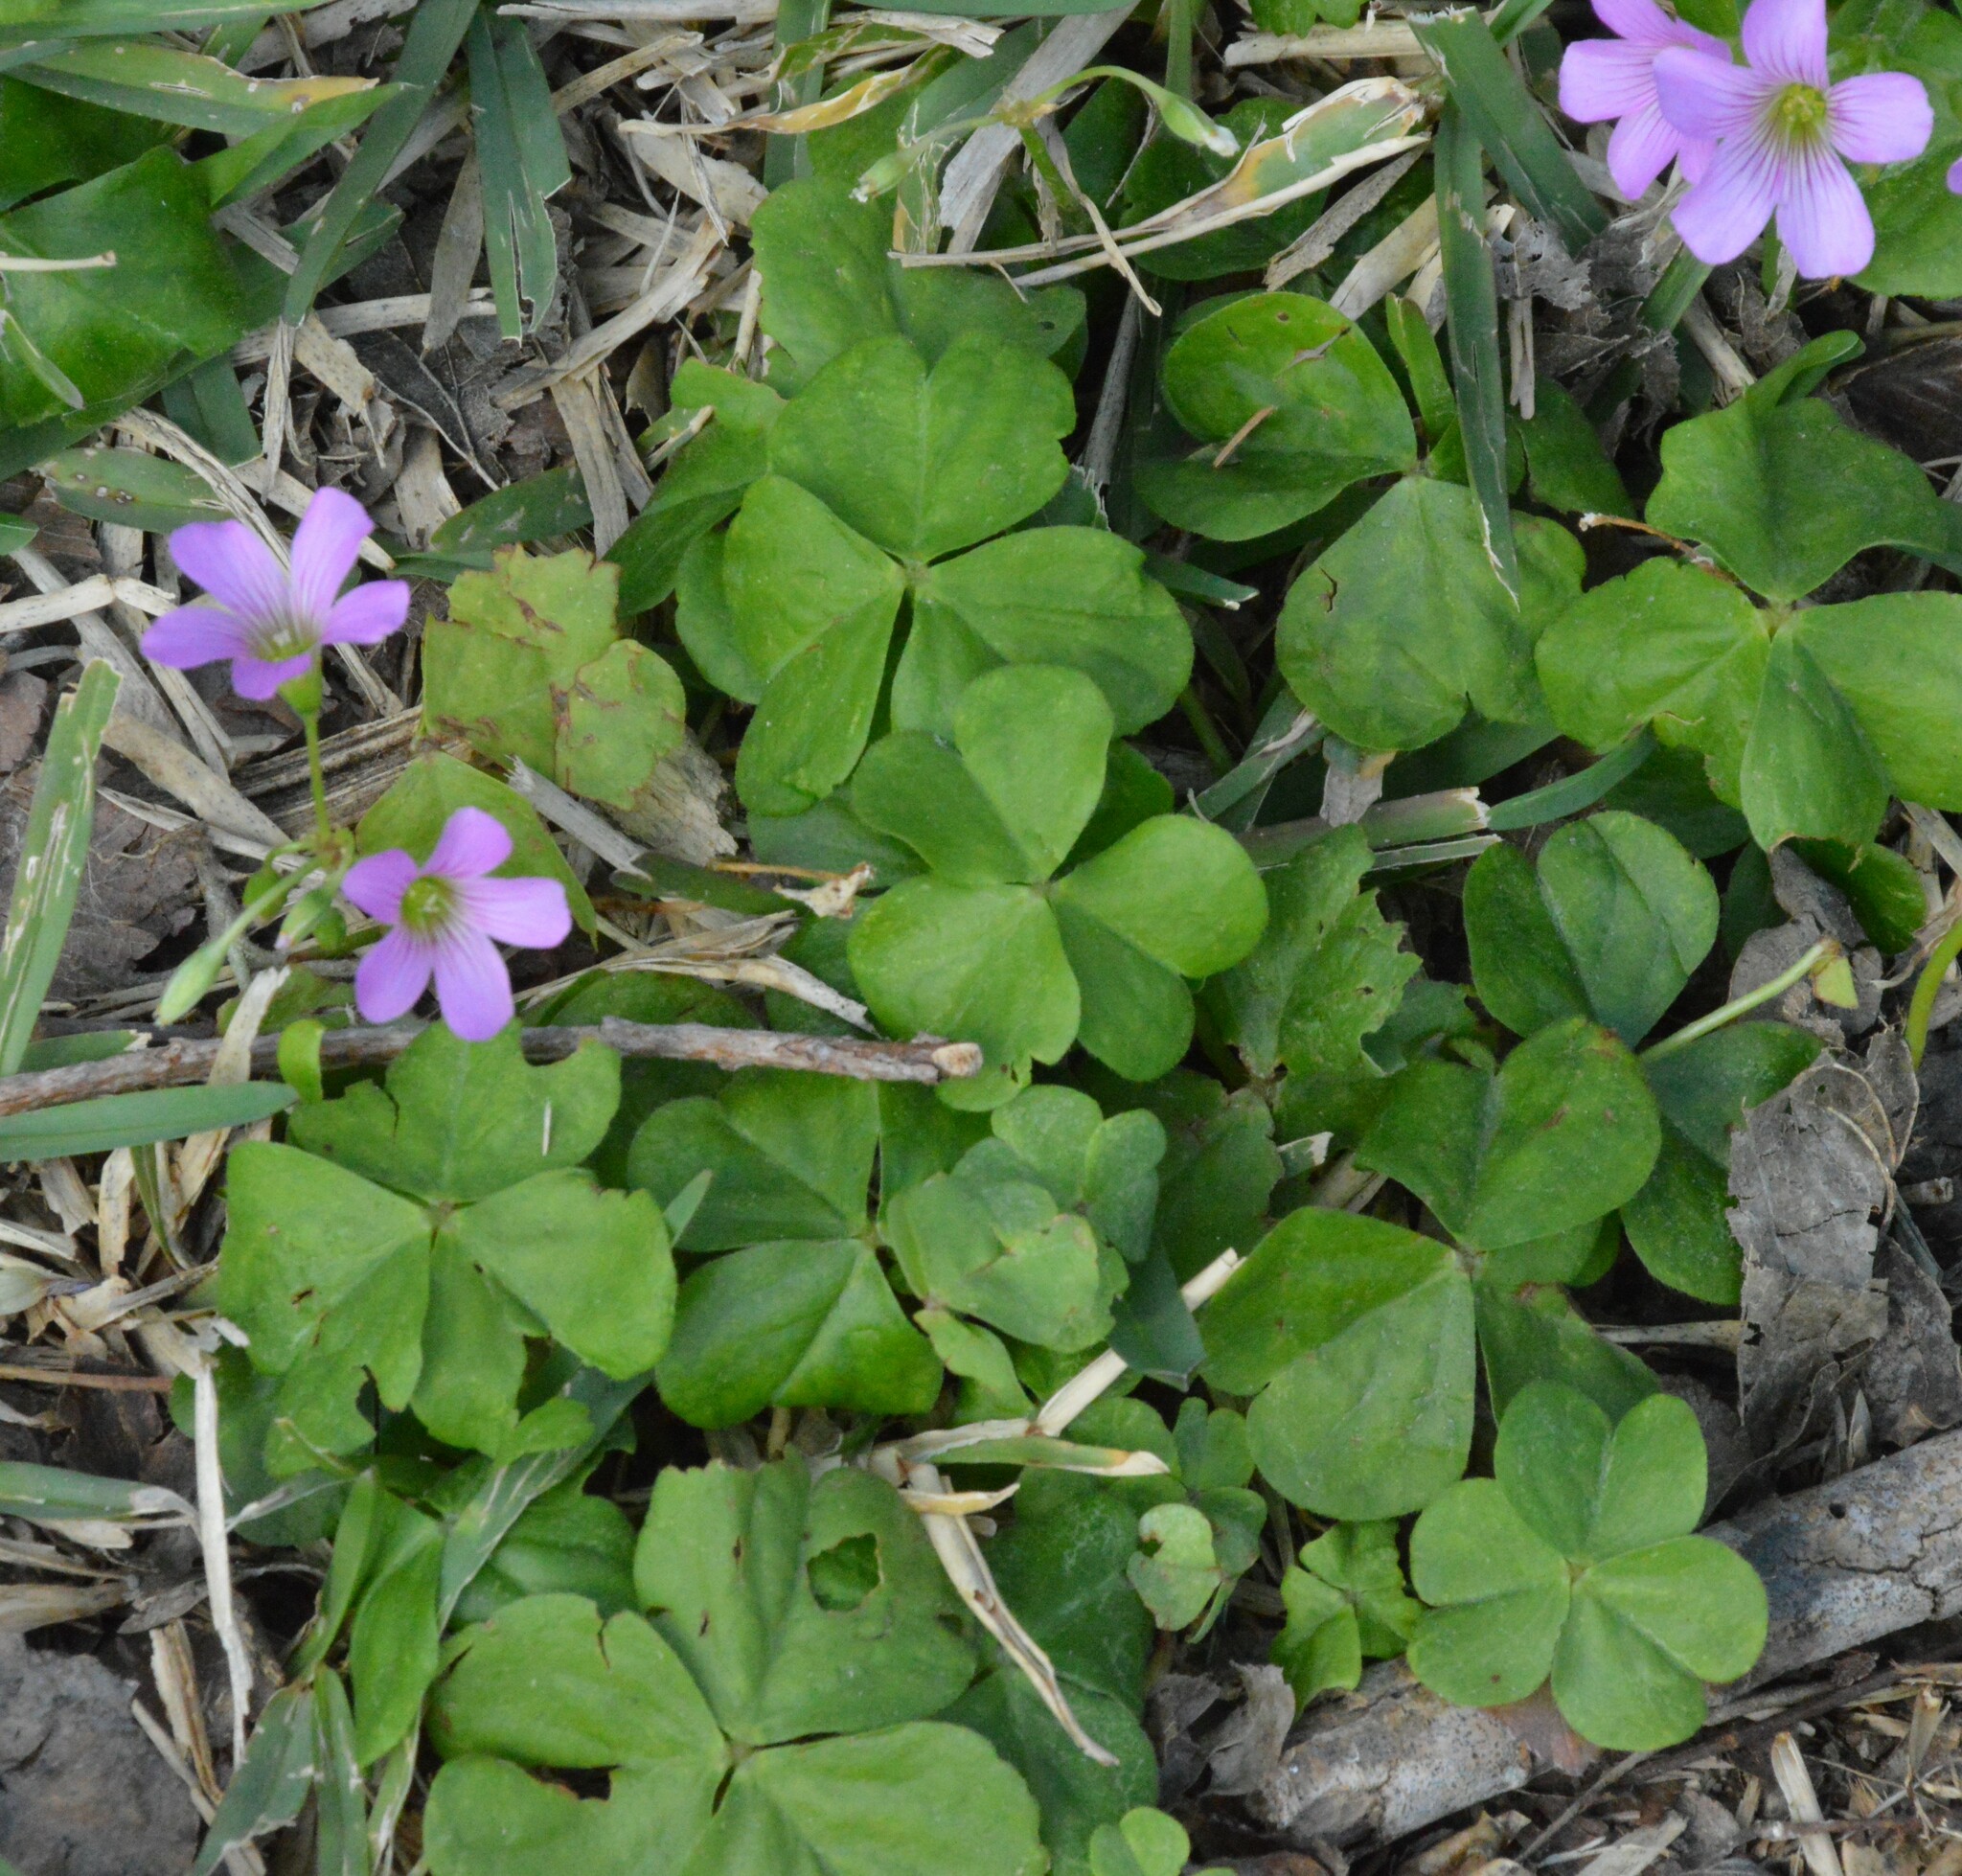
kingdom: Plantae
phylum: Tracheophyta
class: Magnoliopsida
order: Oxalidales
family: Oxalidaceae
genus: Oxalis
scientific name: Oxalis debilis
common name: Large-flowered pink-sorrel
